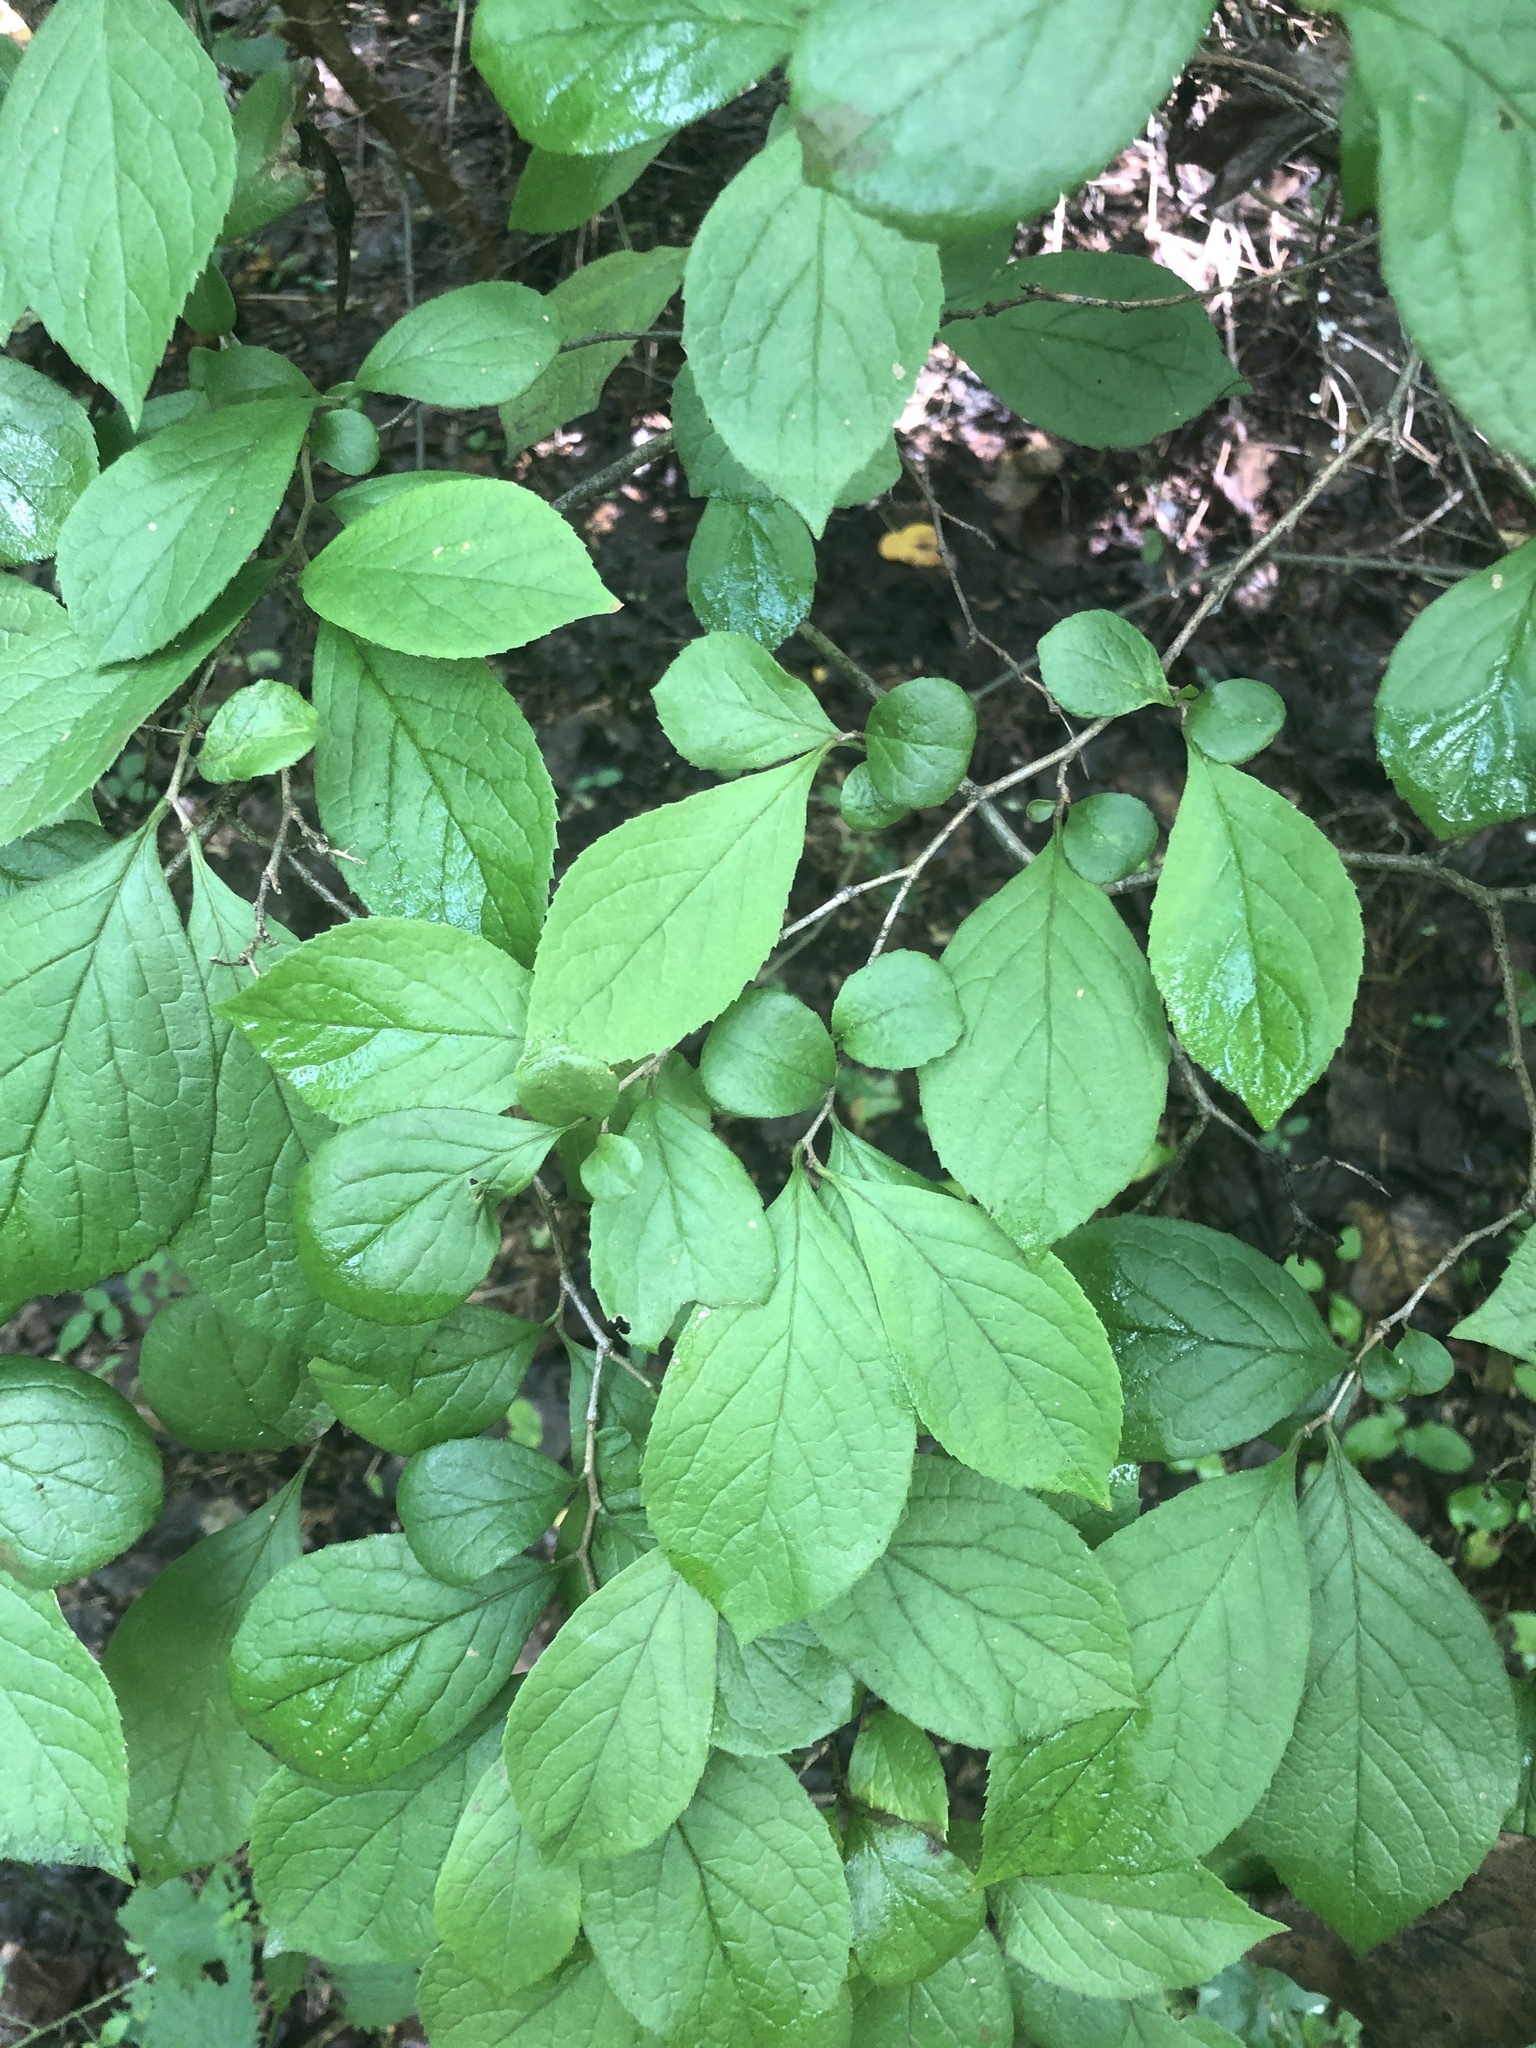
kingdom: Plantae
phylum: Tracheophyta
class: Magnoliopsida
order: Ericales
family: Symplocaceae
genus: Symplocos
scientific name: Symplocos paniculata
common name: Sapphire-berry
